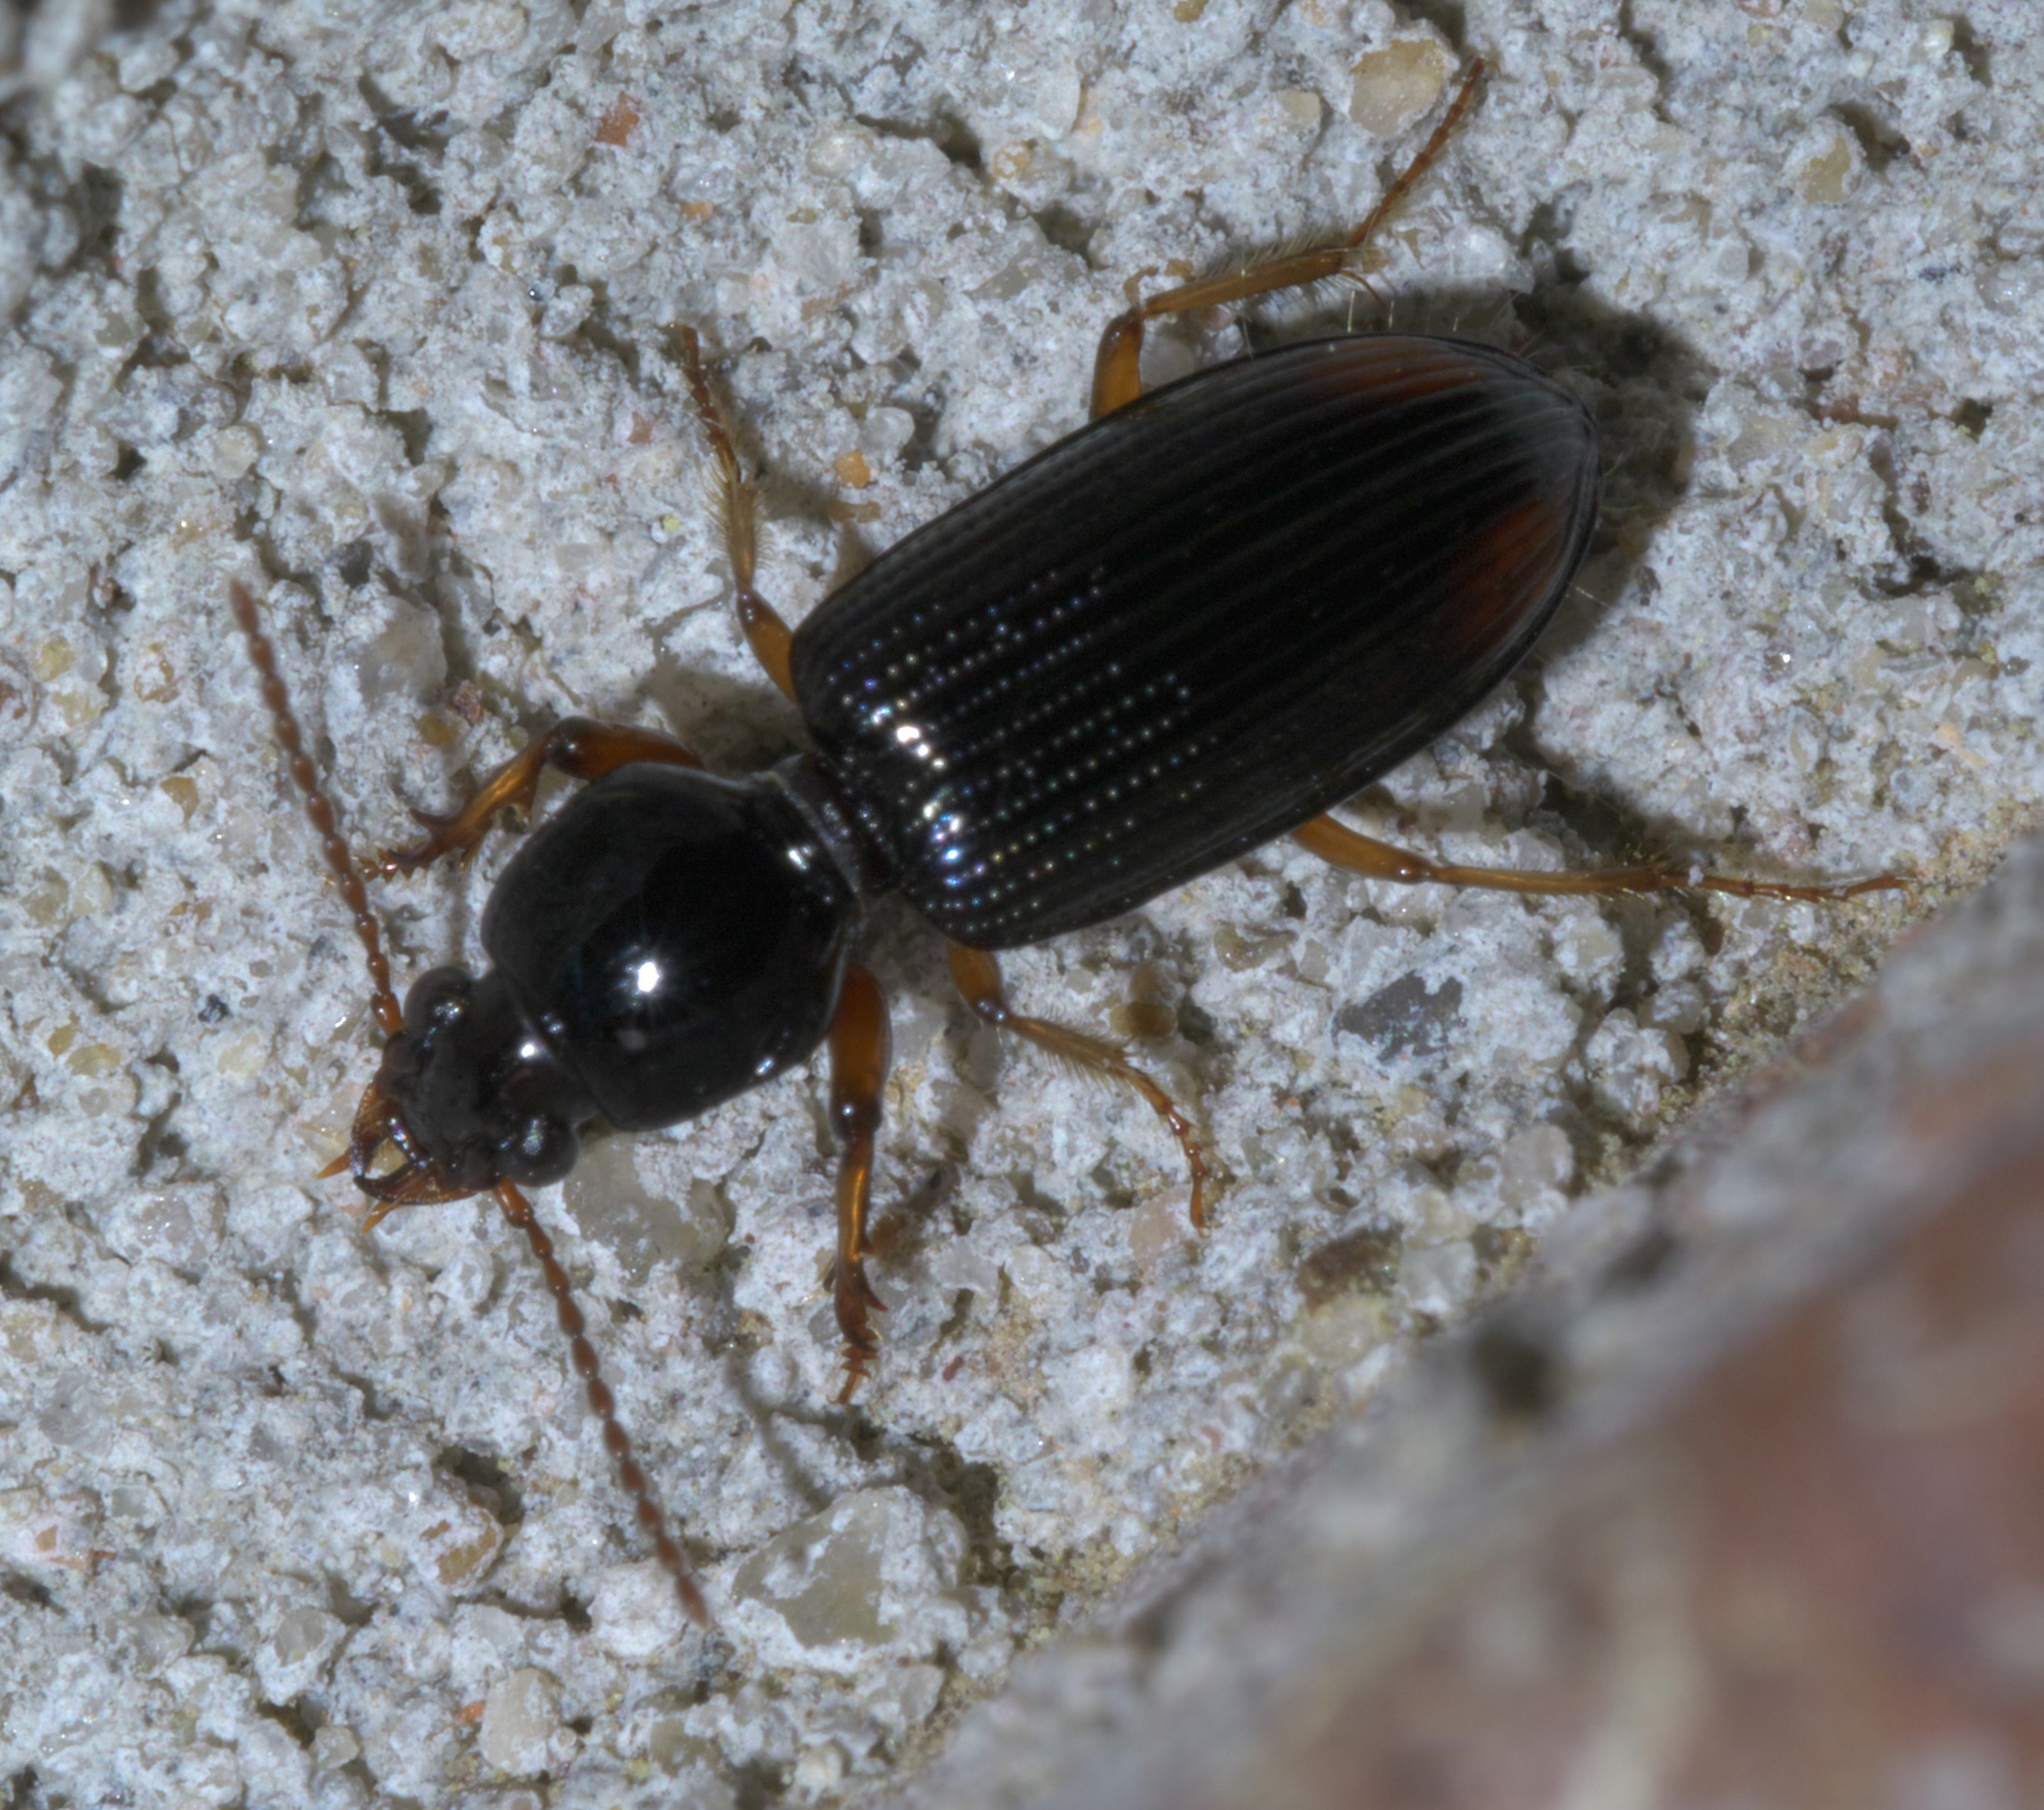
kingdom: Animalia
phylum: Arthropoda
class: Insecta
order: Coleoptera
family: Carabidae
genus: Aspidoglossa
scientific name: Aspidoglossa subangulata
